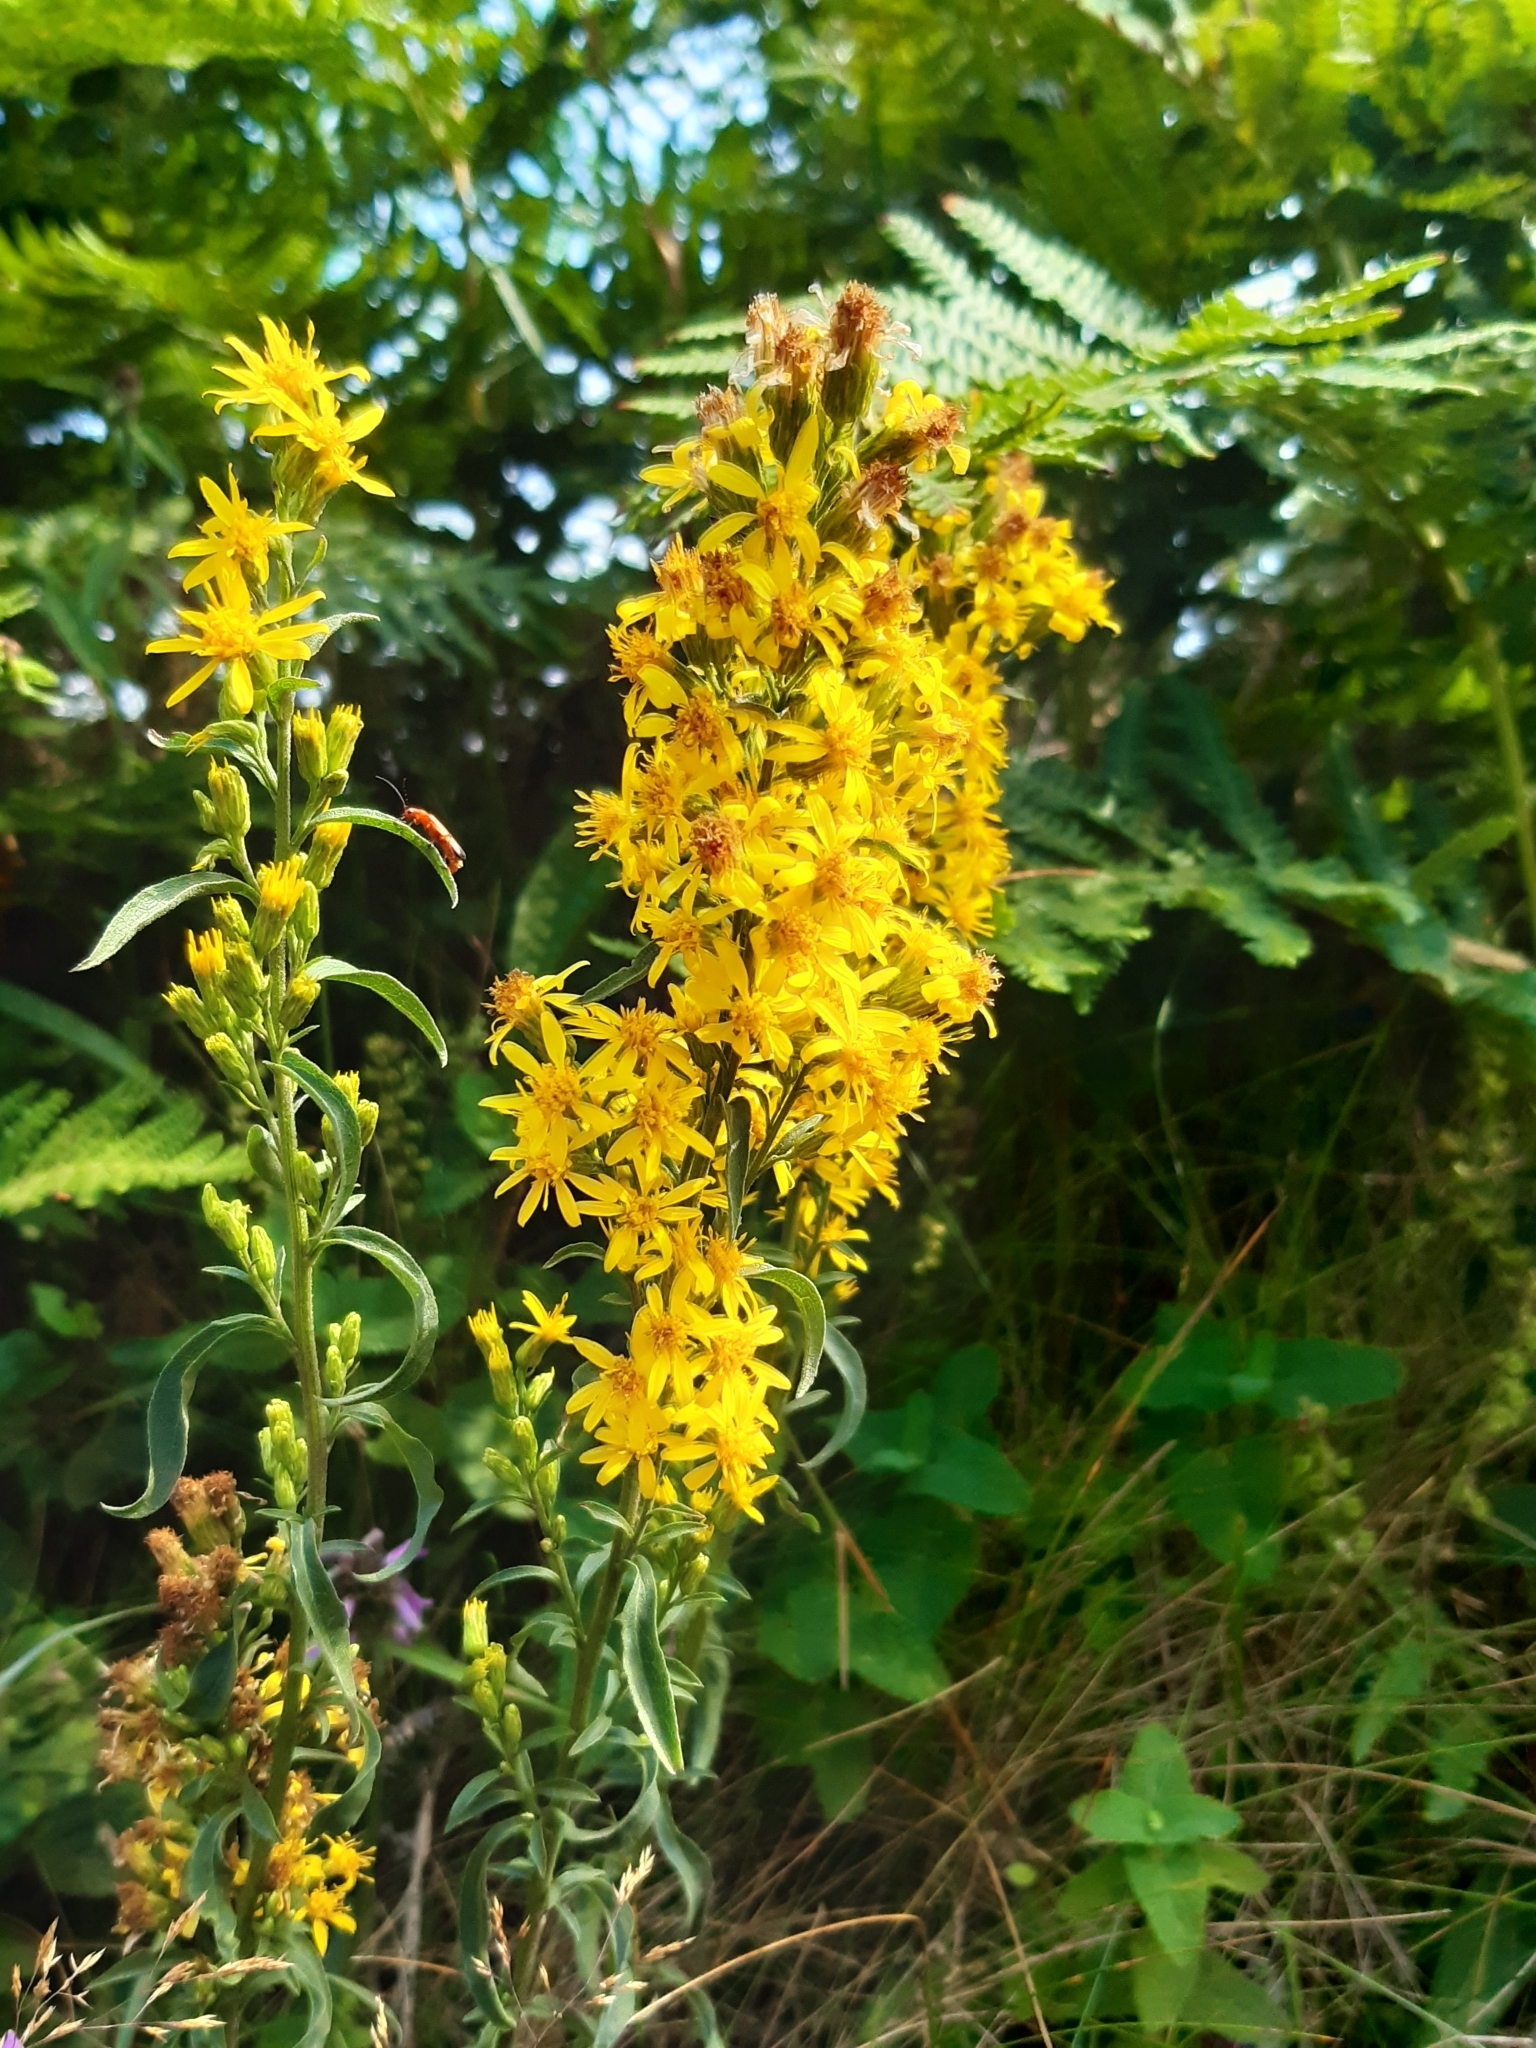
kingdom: Plantae
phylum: Tracheophyta
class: Magnoliopsida
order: Asterales
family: Asteraceae
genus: Solidago
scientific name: Solidago virgaurea
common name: Goldenrod
